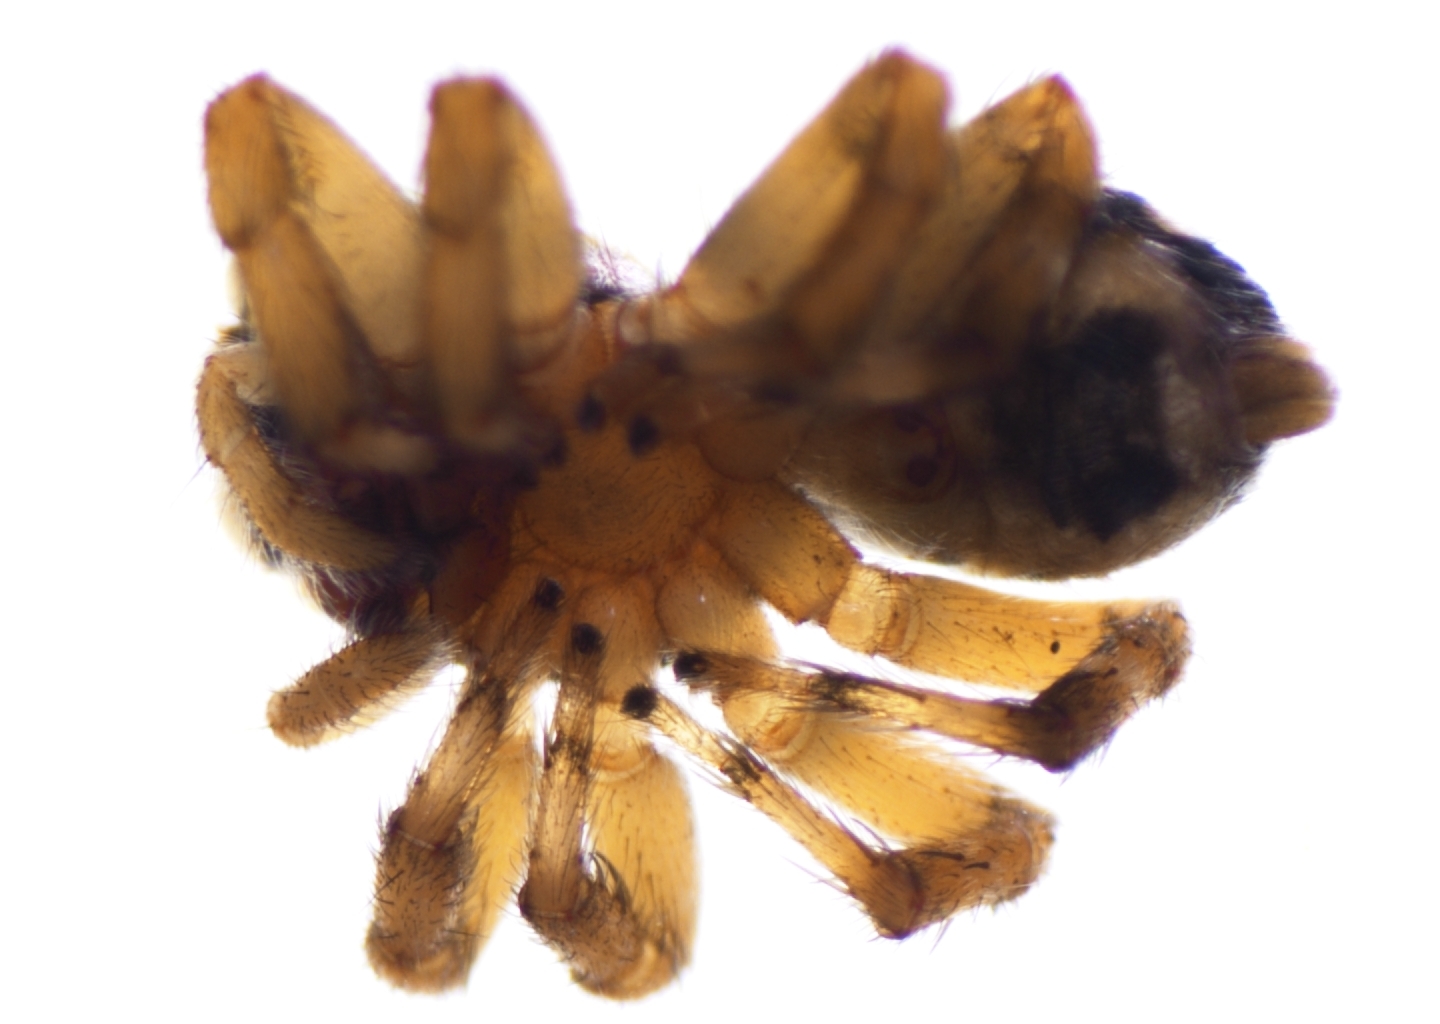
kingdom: Animalia
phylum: Arthropoda
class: Arachnida
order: Araneae
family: Salticidae
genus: Thorelliola
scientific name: Thorelliola ensifera
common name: Jumping spider
